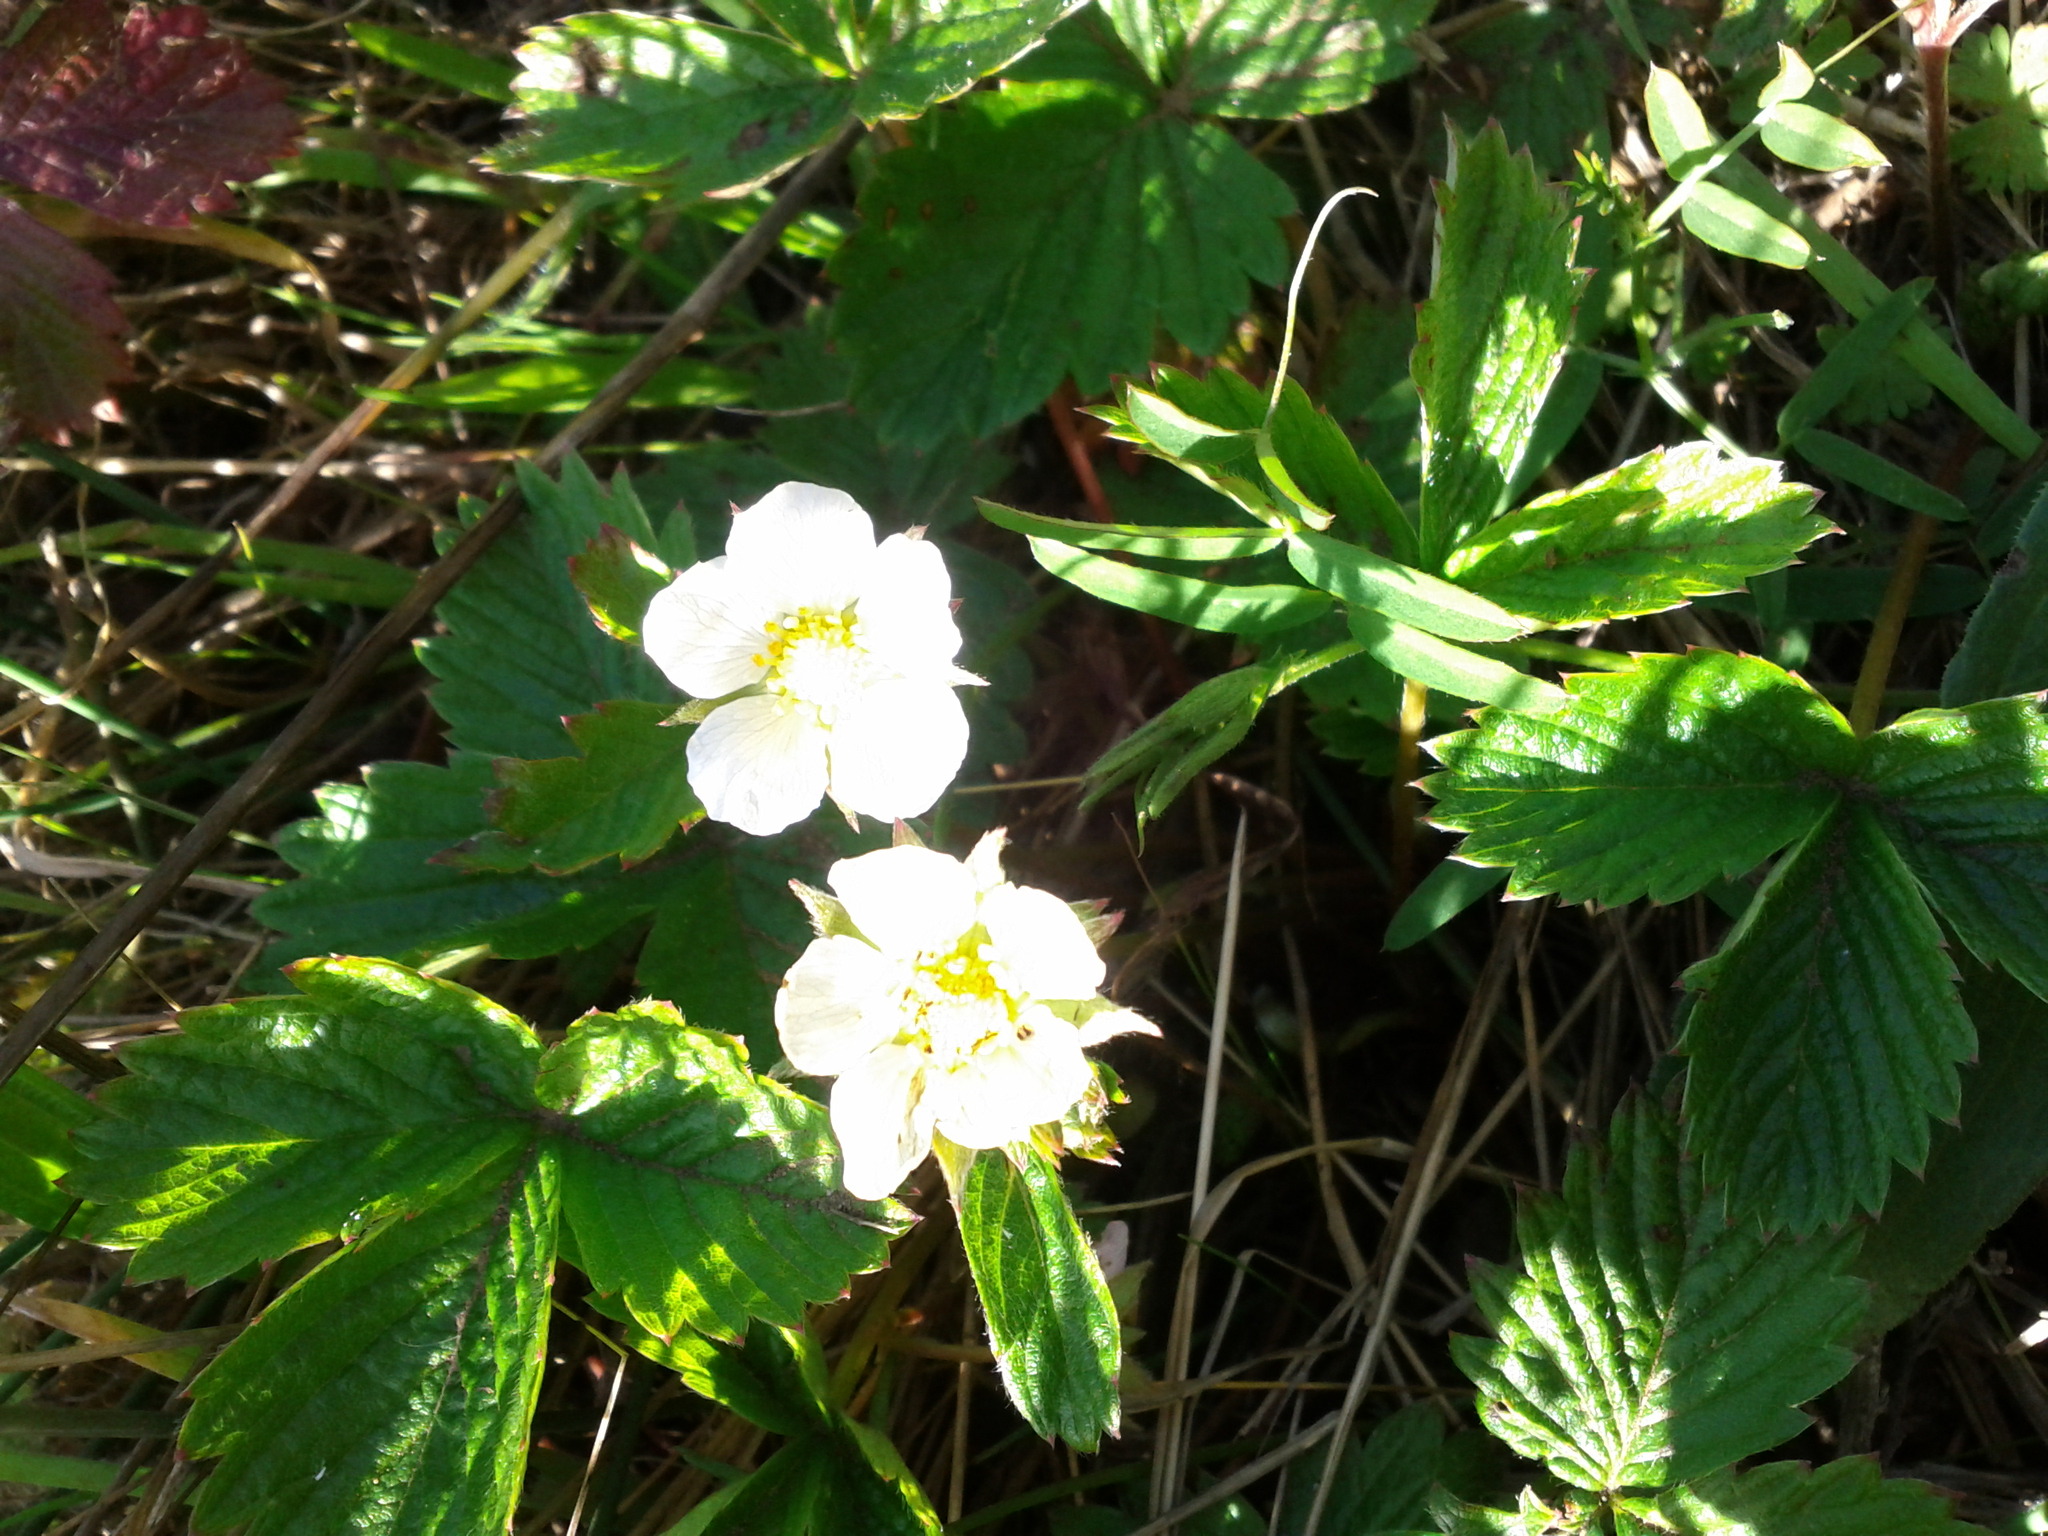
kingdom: Plantae
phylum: Tracheophyta
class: Magnoliopsida
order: Rosales
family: Rosaceae
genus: Fragaria
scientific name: Fragaria vesca
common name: Wild strawberry
